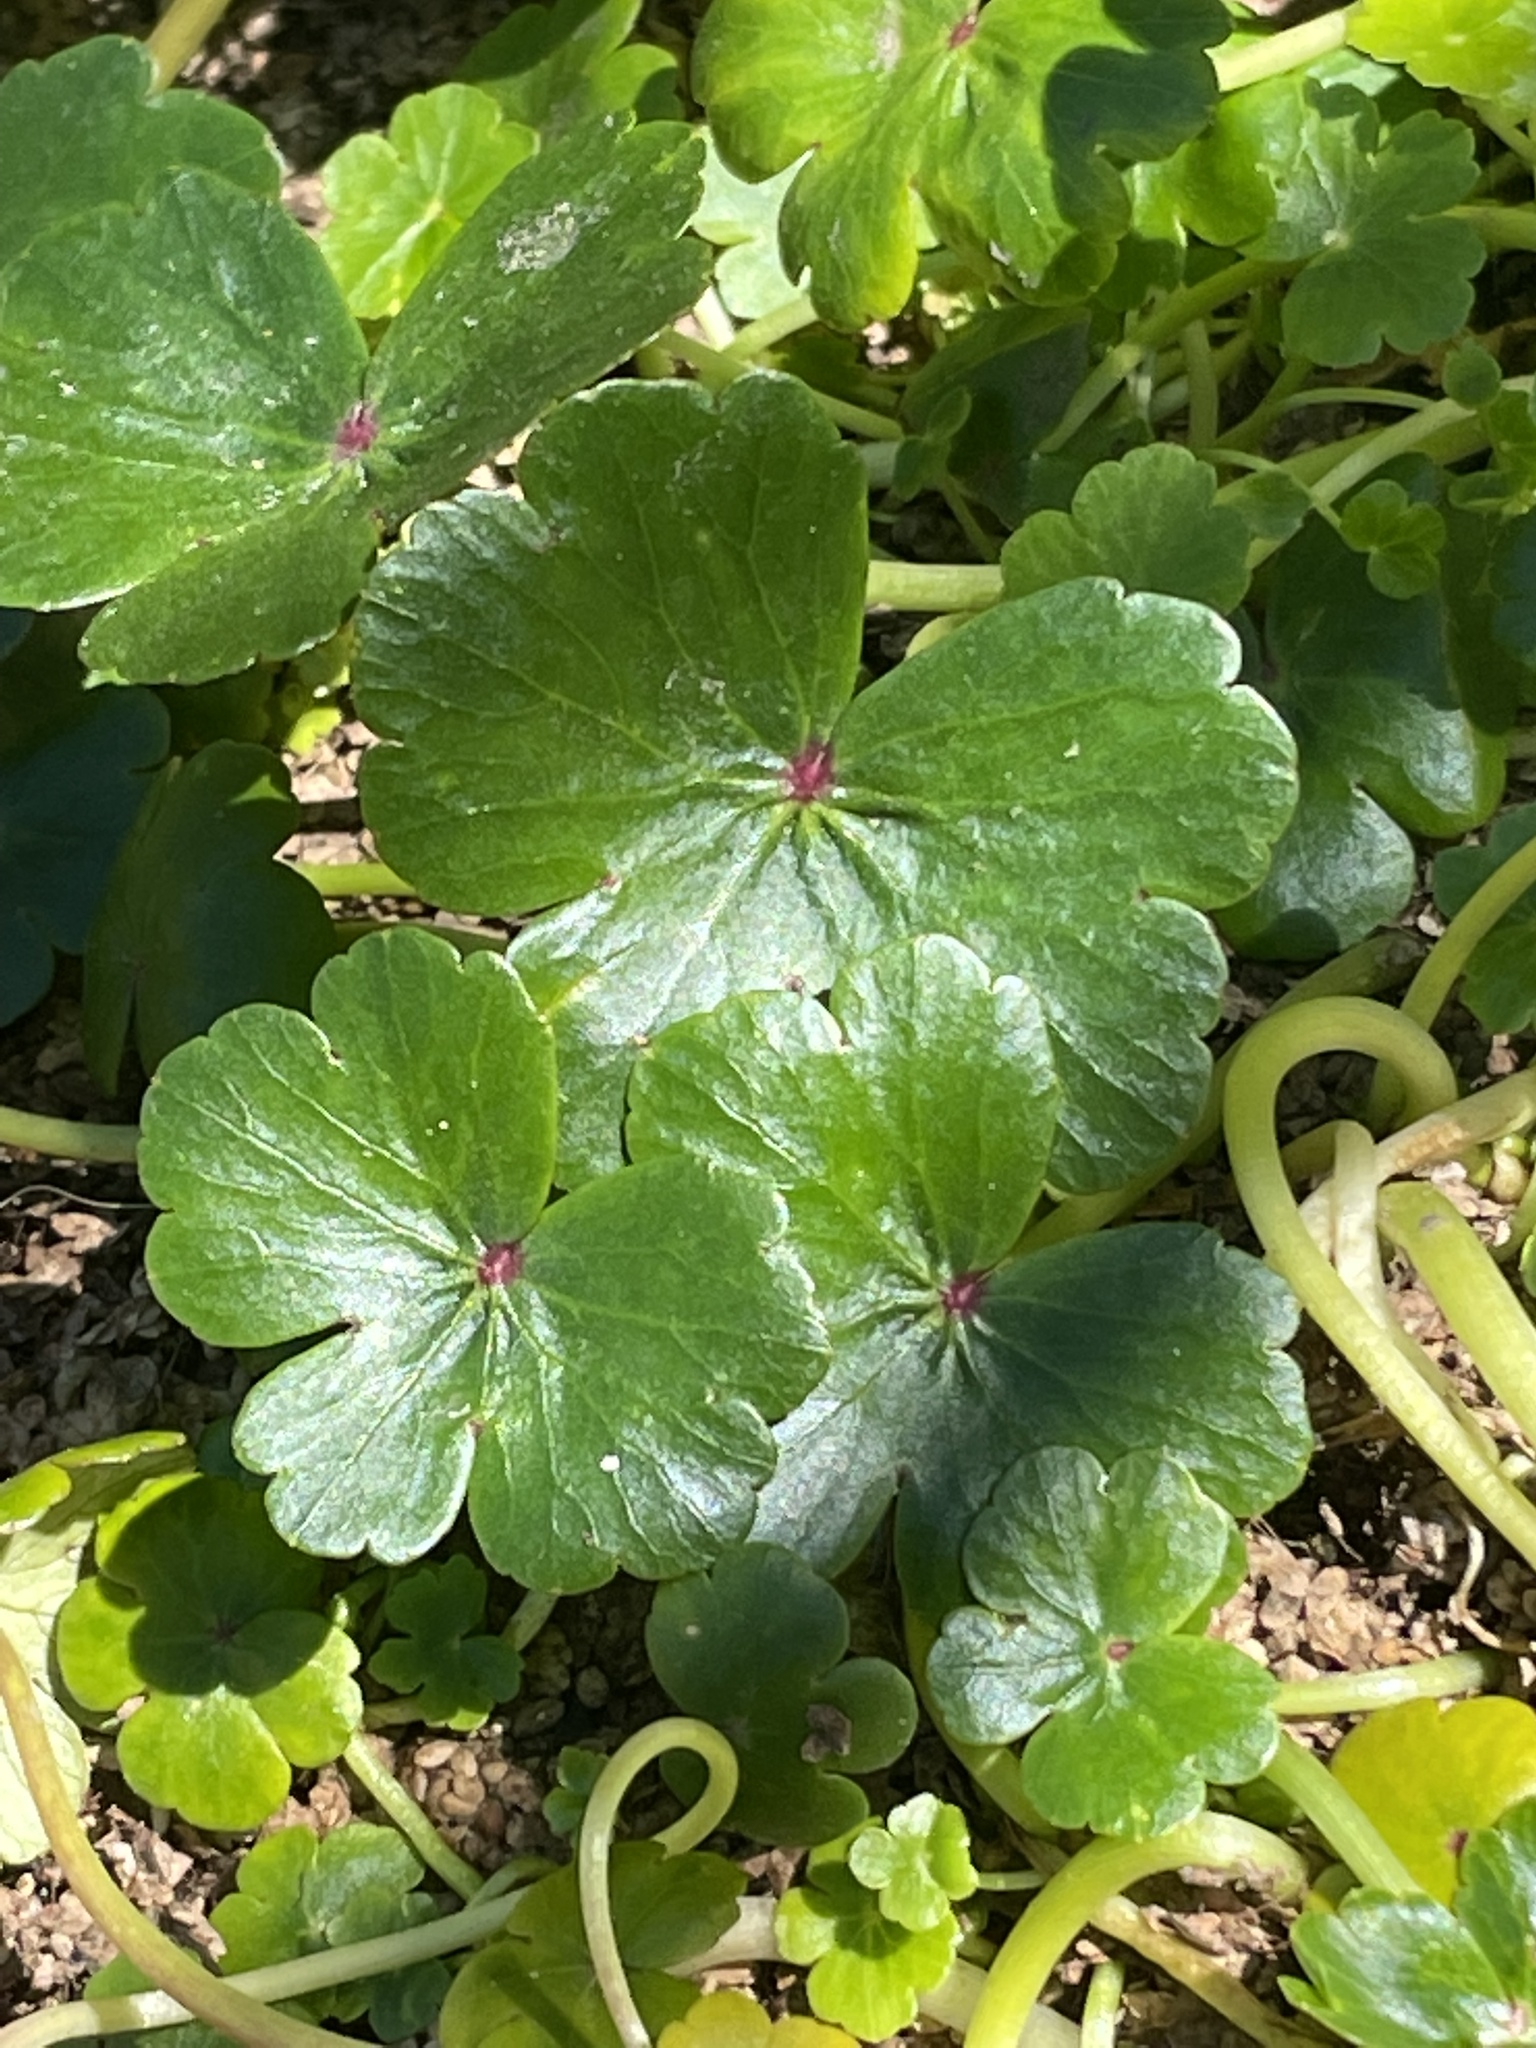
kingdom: Plantae
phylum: Tracheophyta
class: Magnoliopsida
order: Apiales
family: Araliaceae
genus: Hydrocotyle
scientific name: Hydrocotyle ranunculoides
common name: Floating pennywort
